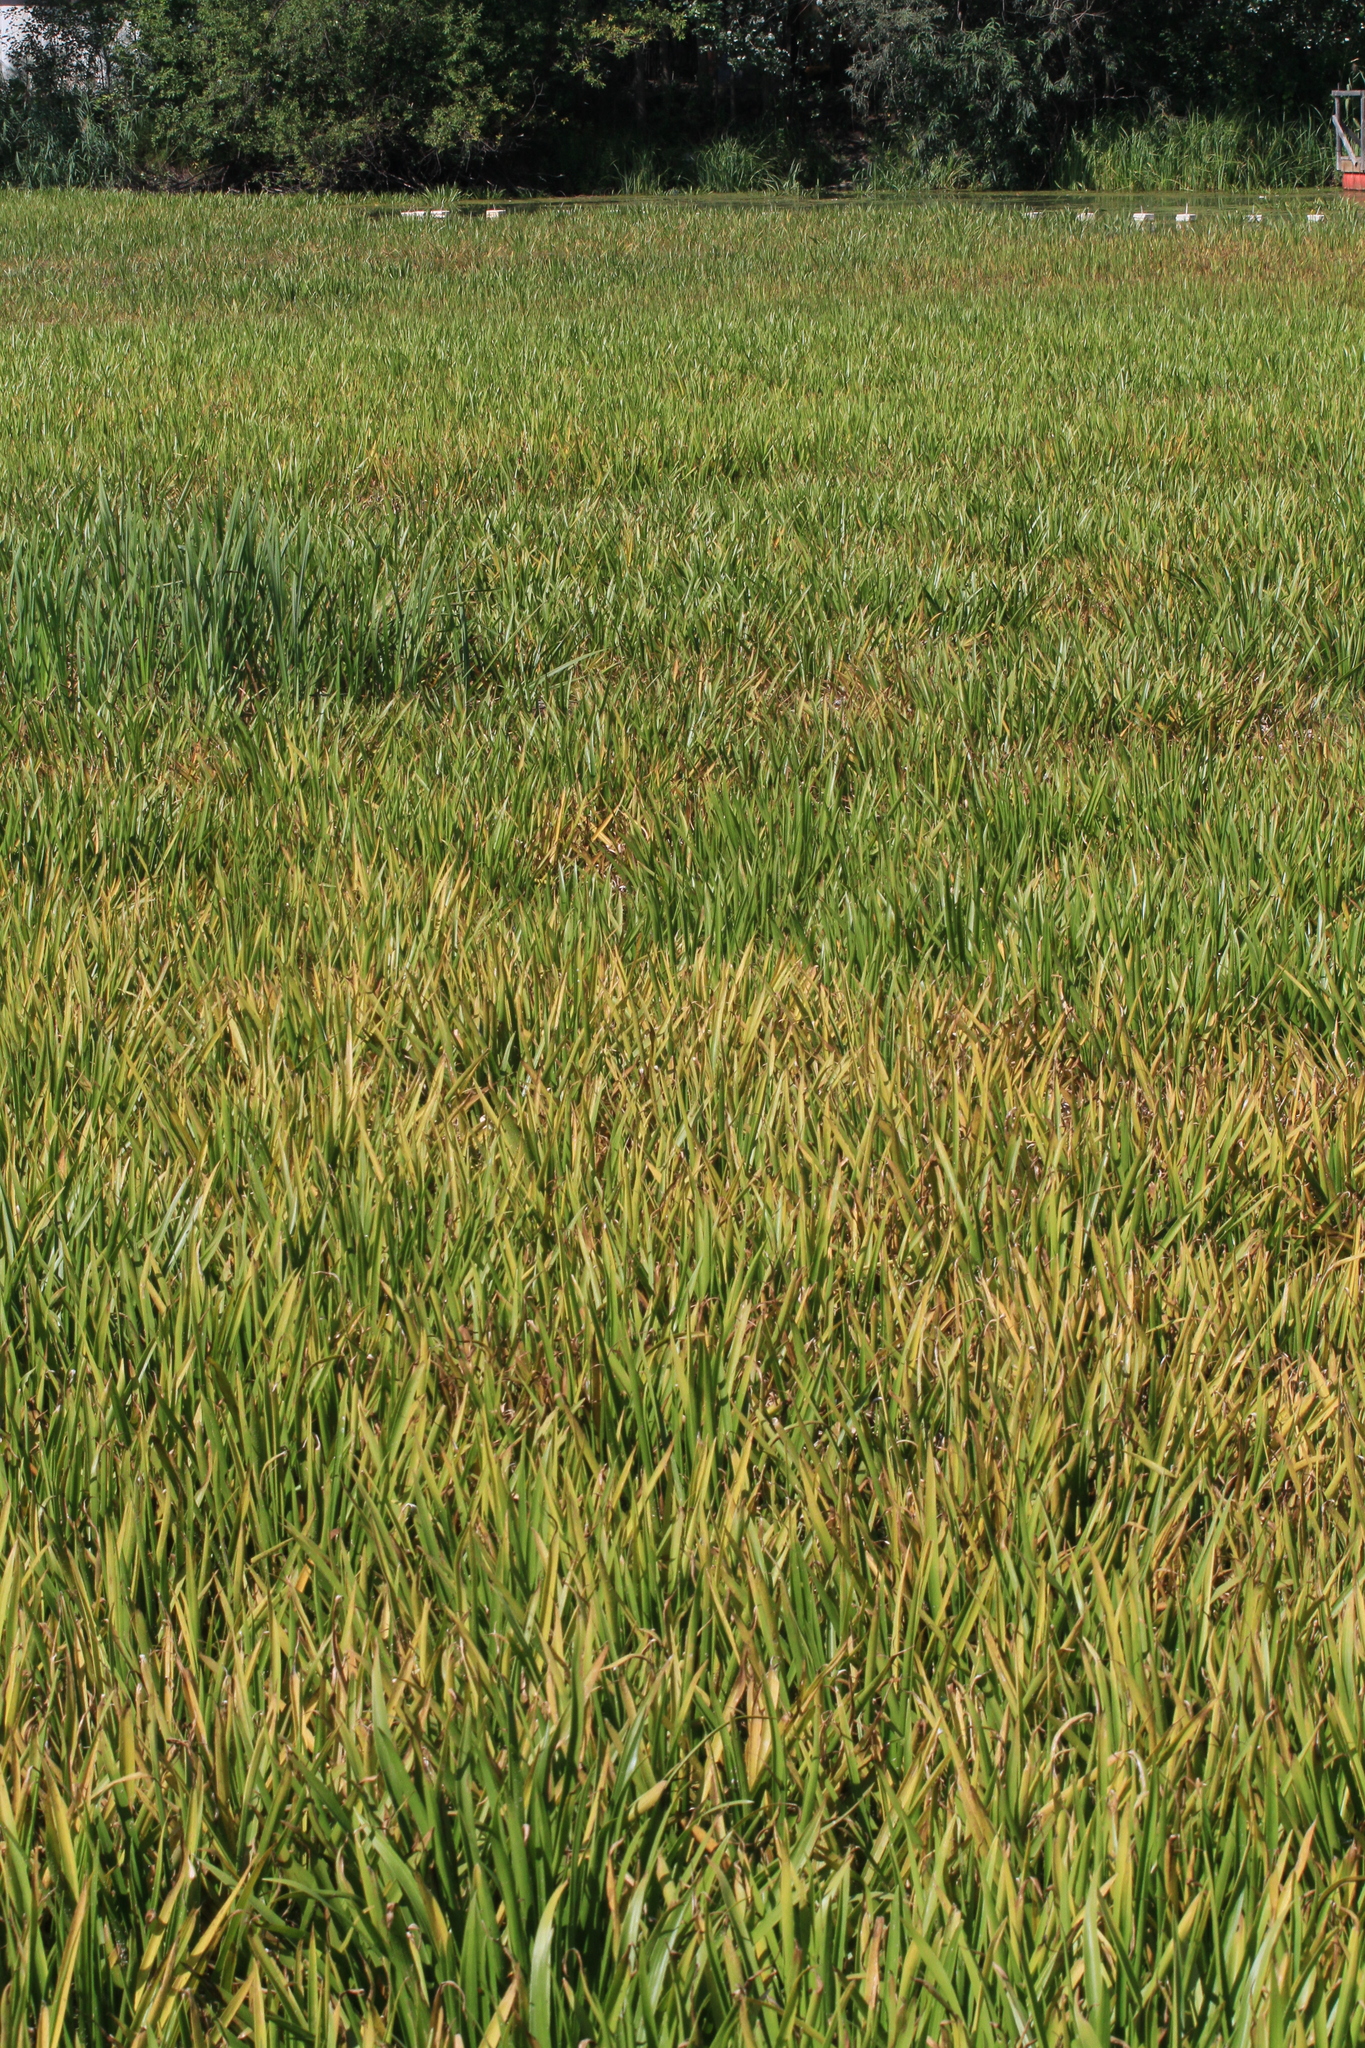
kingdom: Plantae
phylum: Tracheophyta
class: Liliopsida
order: Alismatales
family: Hydrocharitaceae
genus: Stratiotes
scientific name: Stratiotes aloides
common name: Water-soldier
